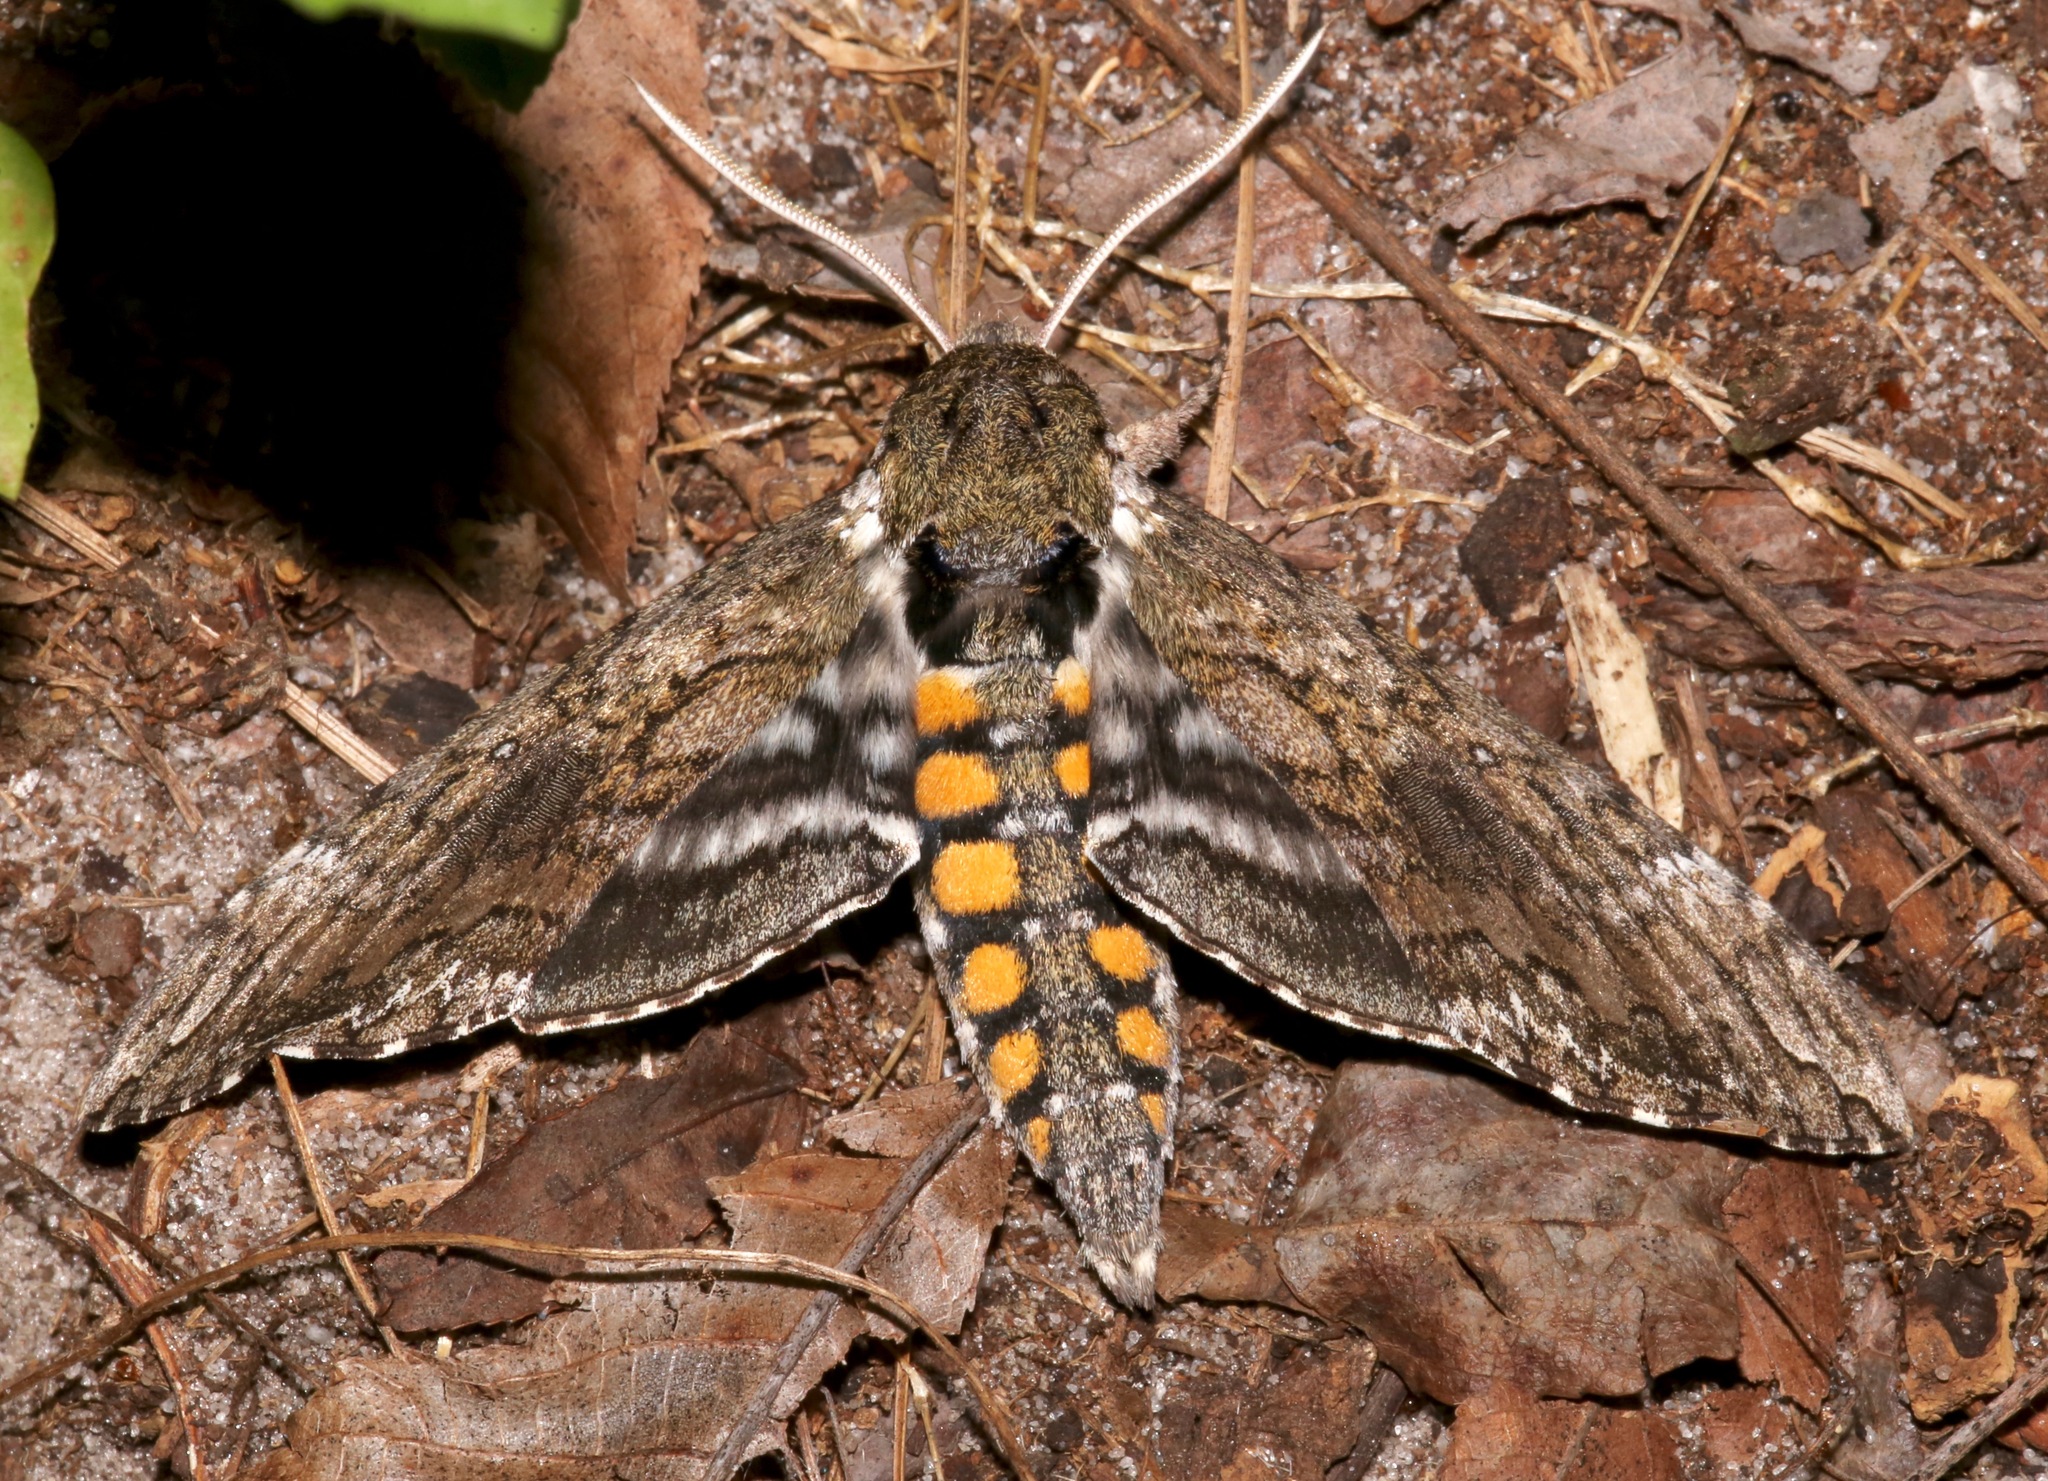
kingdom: Animalia
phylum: Arthropoda
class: Insecta
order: Lepidoptera
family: Sphingidae
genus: Manduca
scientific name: Manduca sexta
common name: Carolina sphinx
